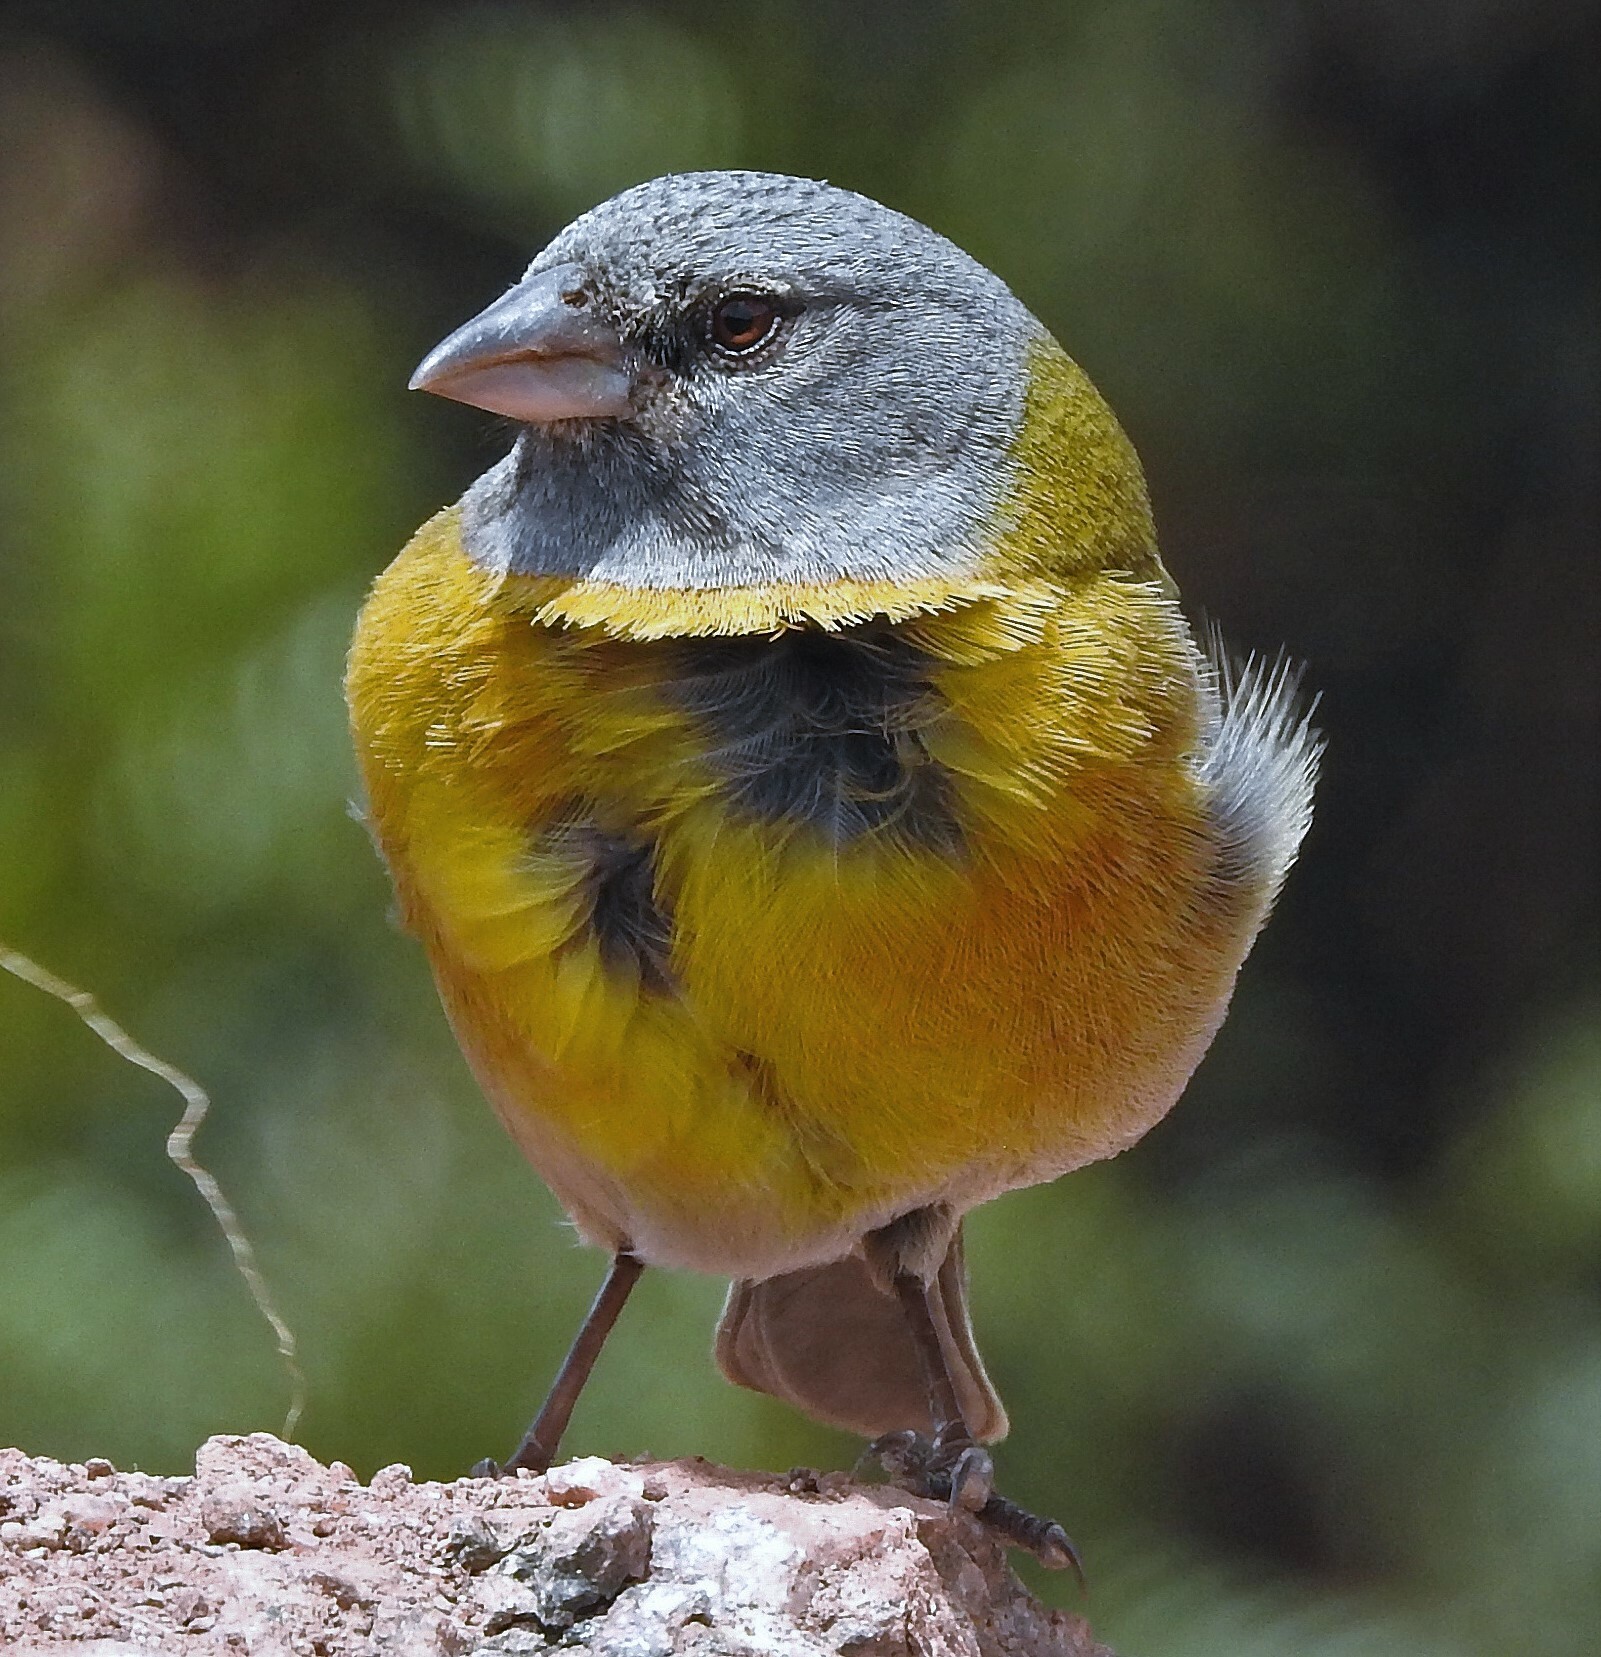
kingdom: Animalia
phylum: Chordata
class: Aves
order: Passeriformes
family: Thraupidae
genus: Phrygilus
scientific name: Phrygilus gayi
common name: Grey-hooded sierra finch
